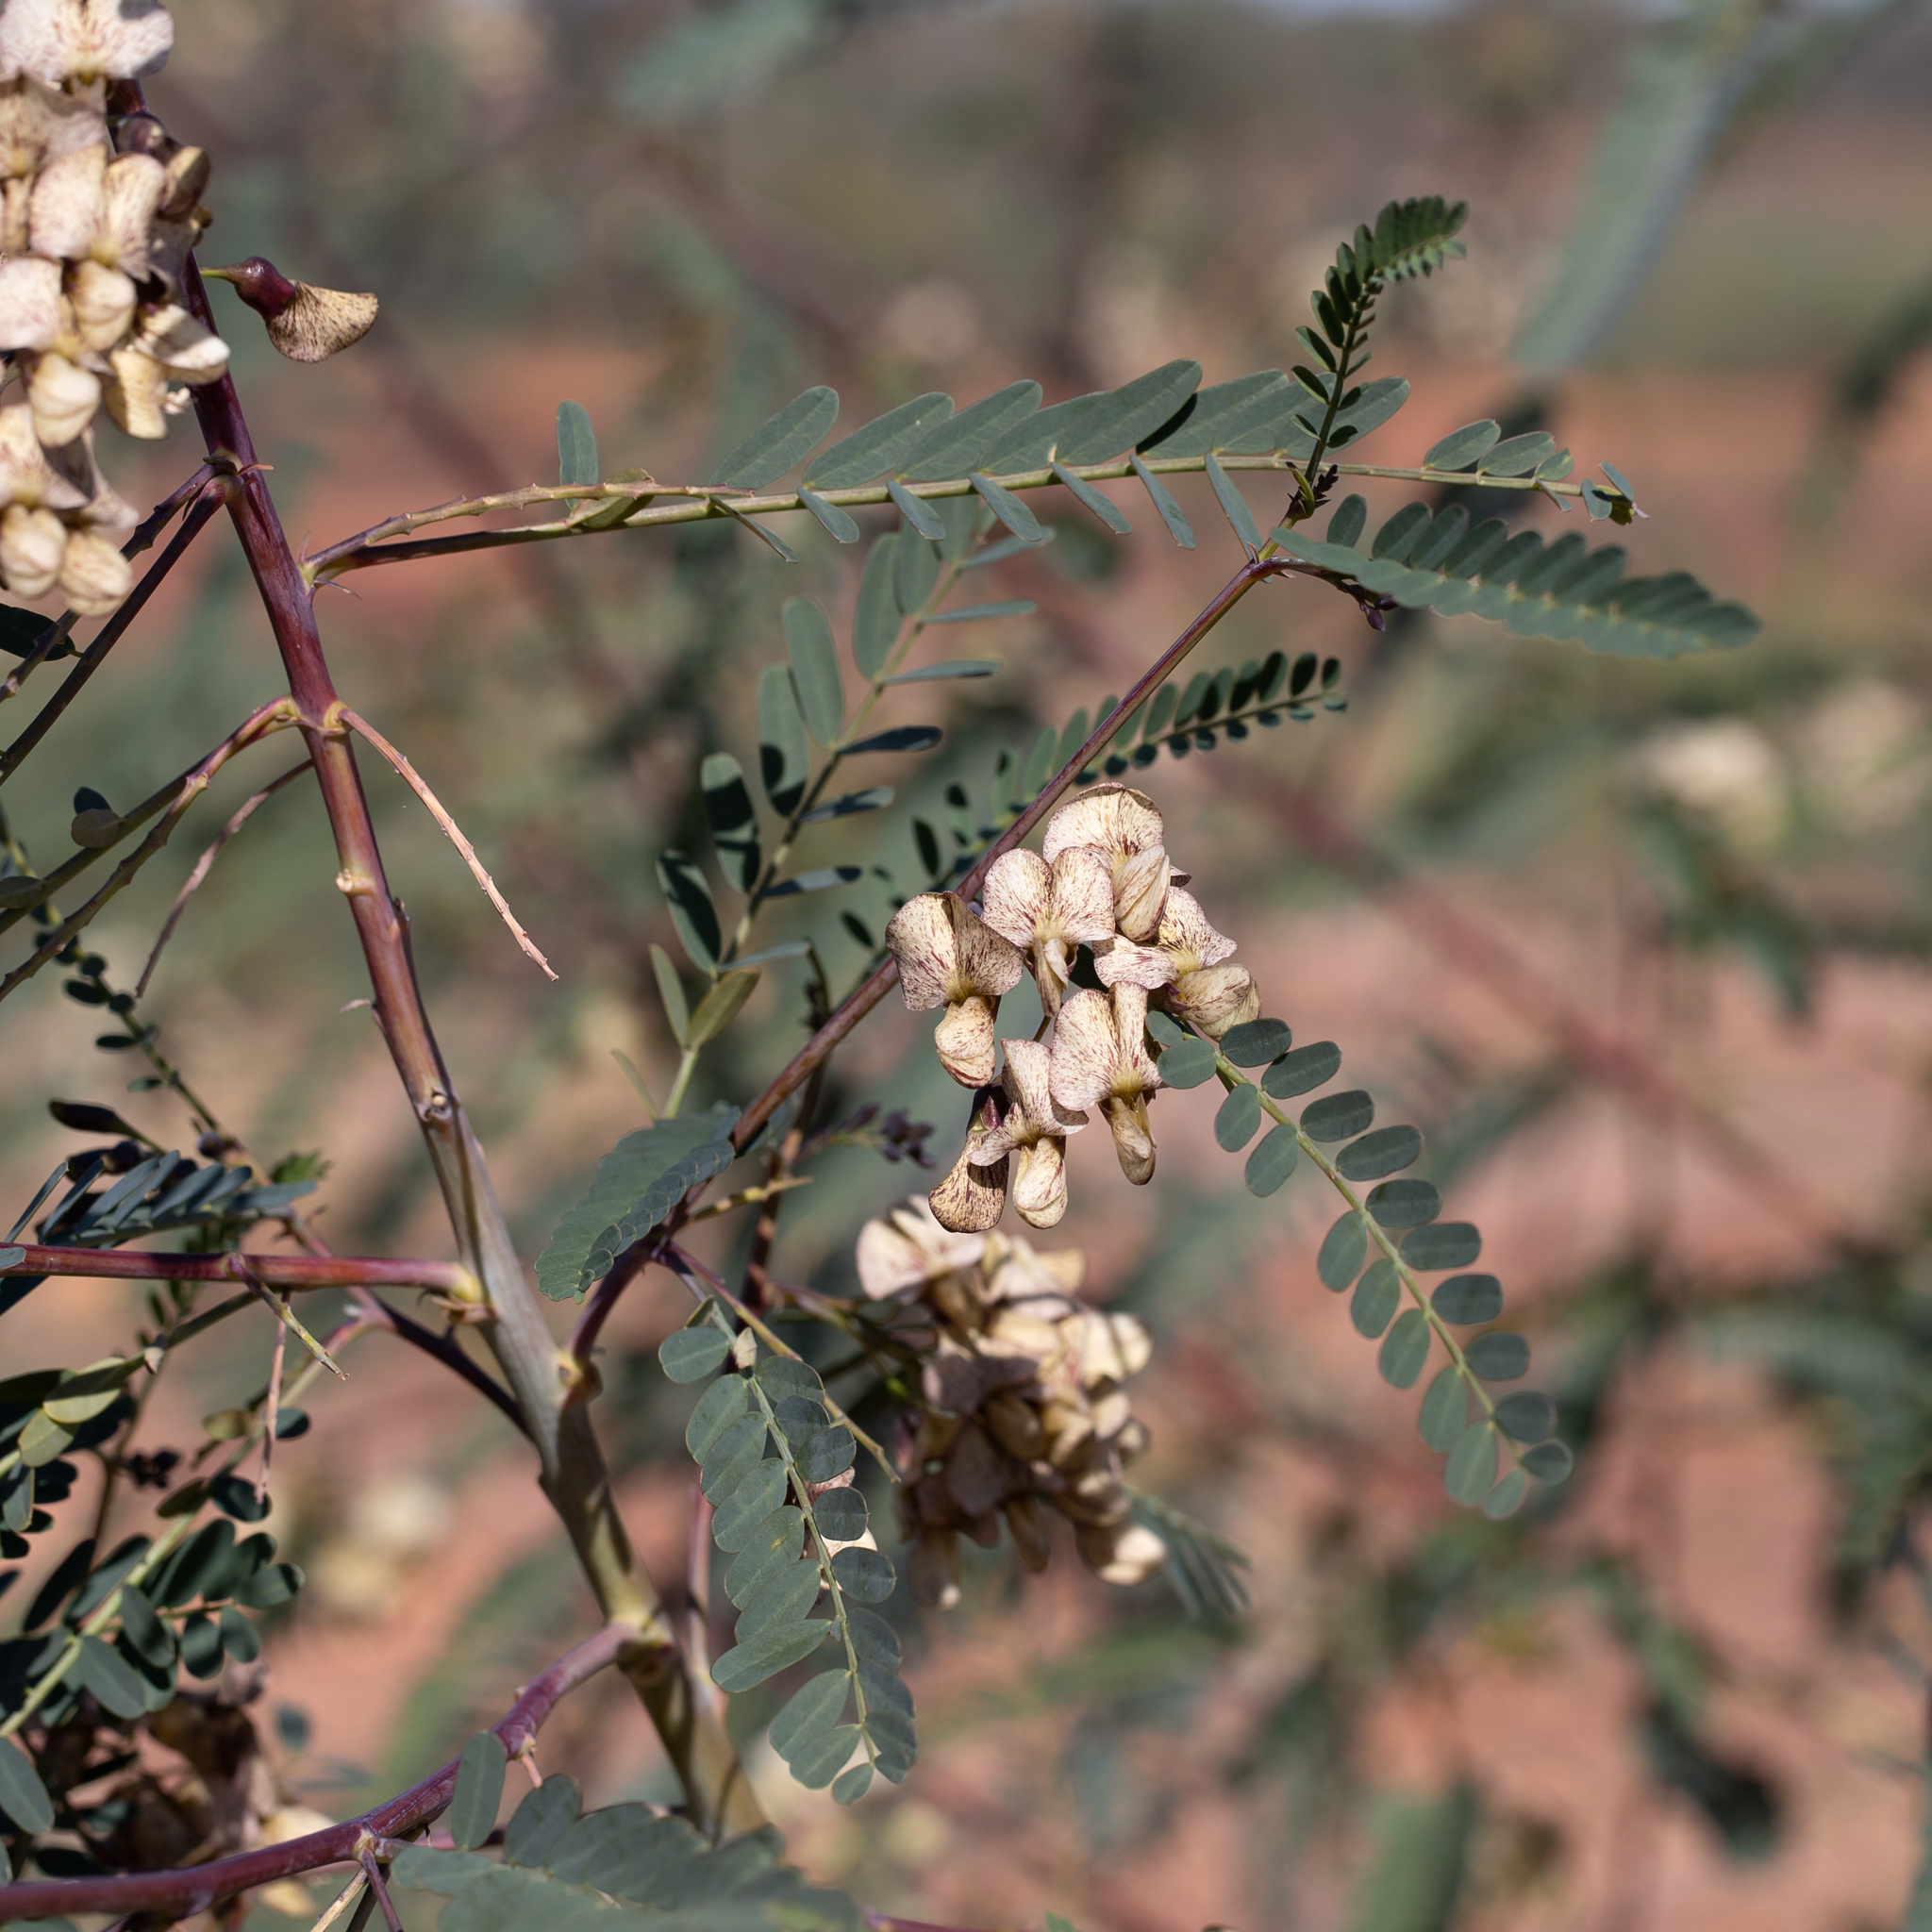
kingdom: Plantae
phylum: Tracheophyta
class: Magnoliopsida
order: Fabales
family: Fabaceae
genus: Sesbania
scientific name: Sesbania benthamiana
